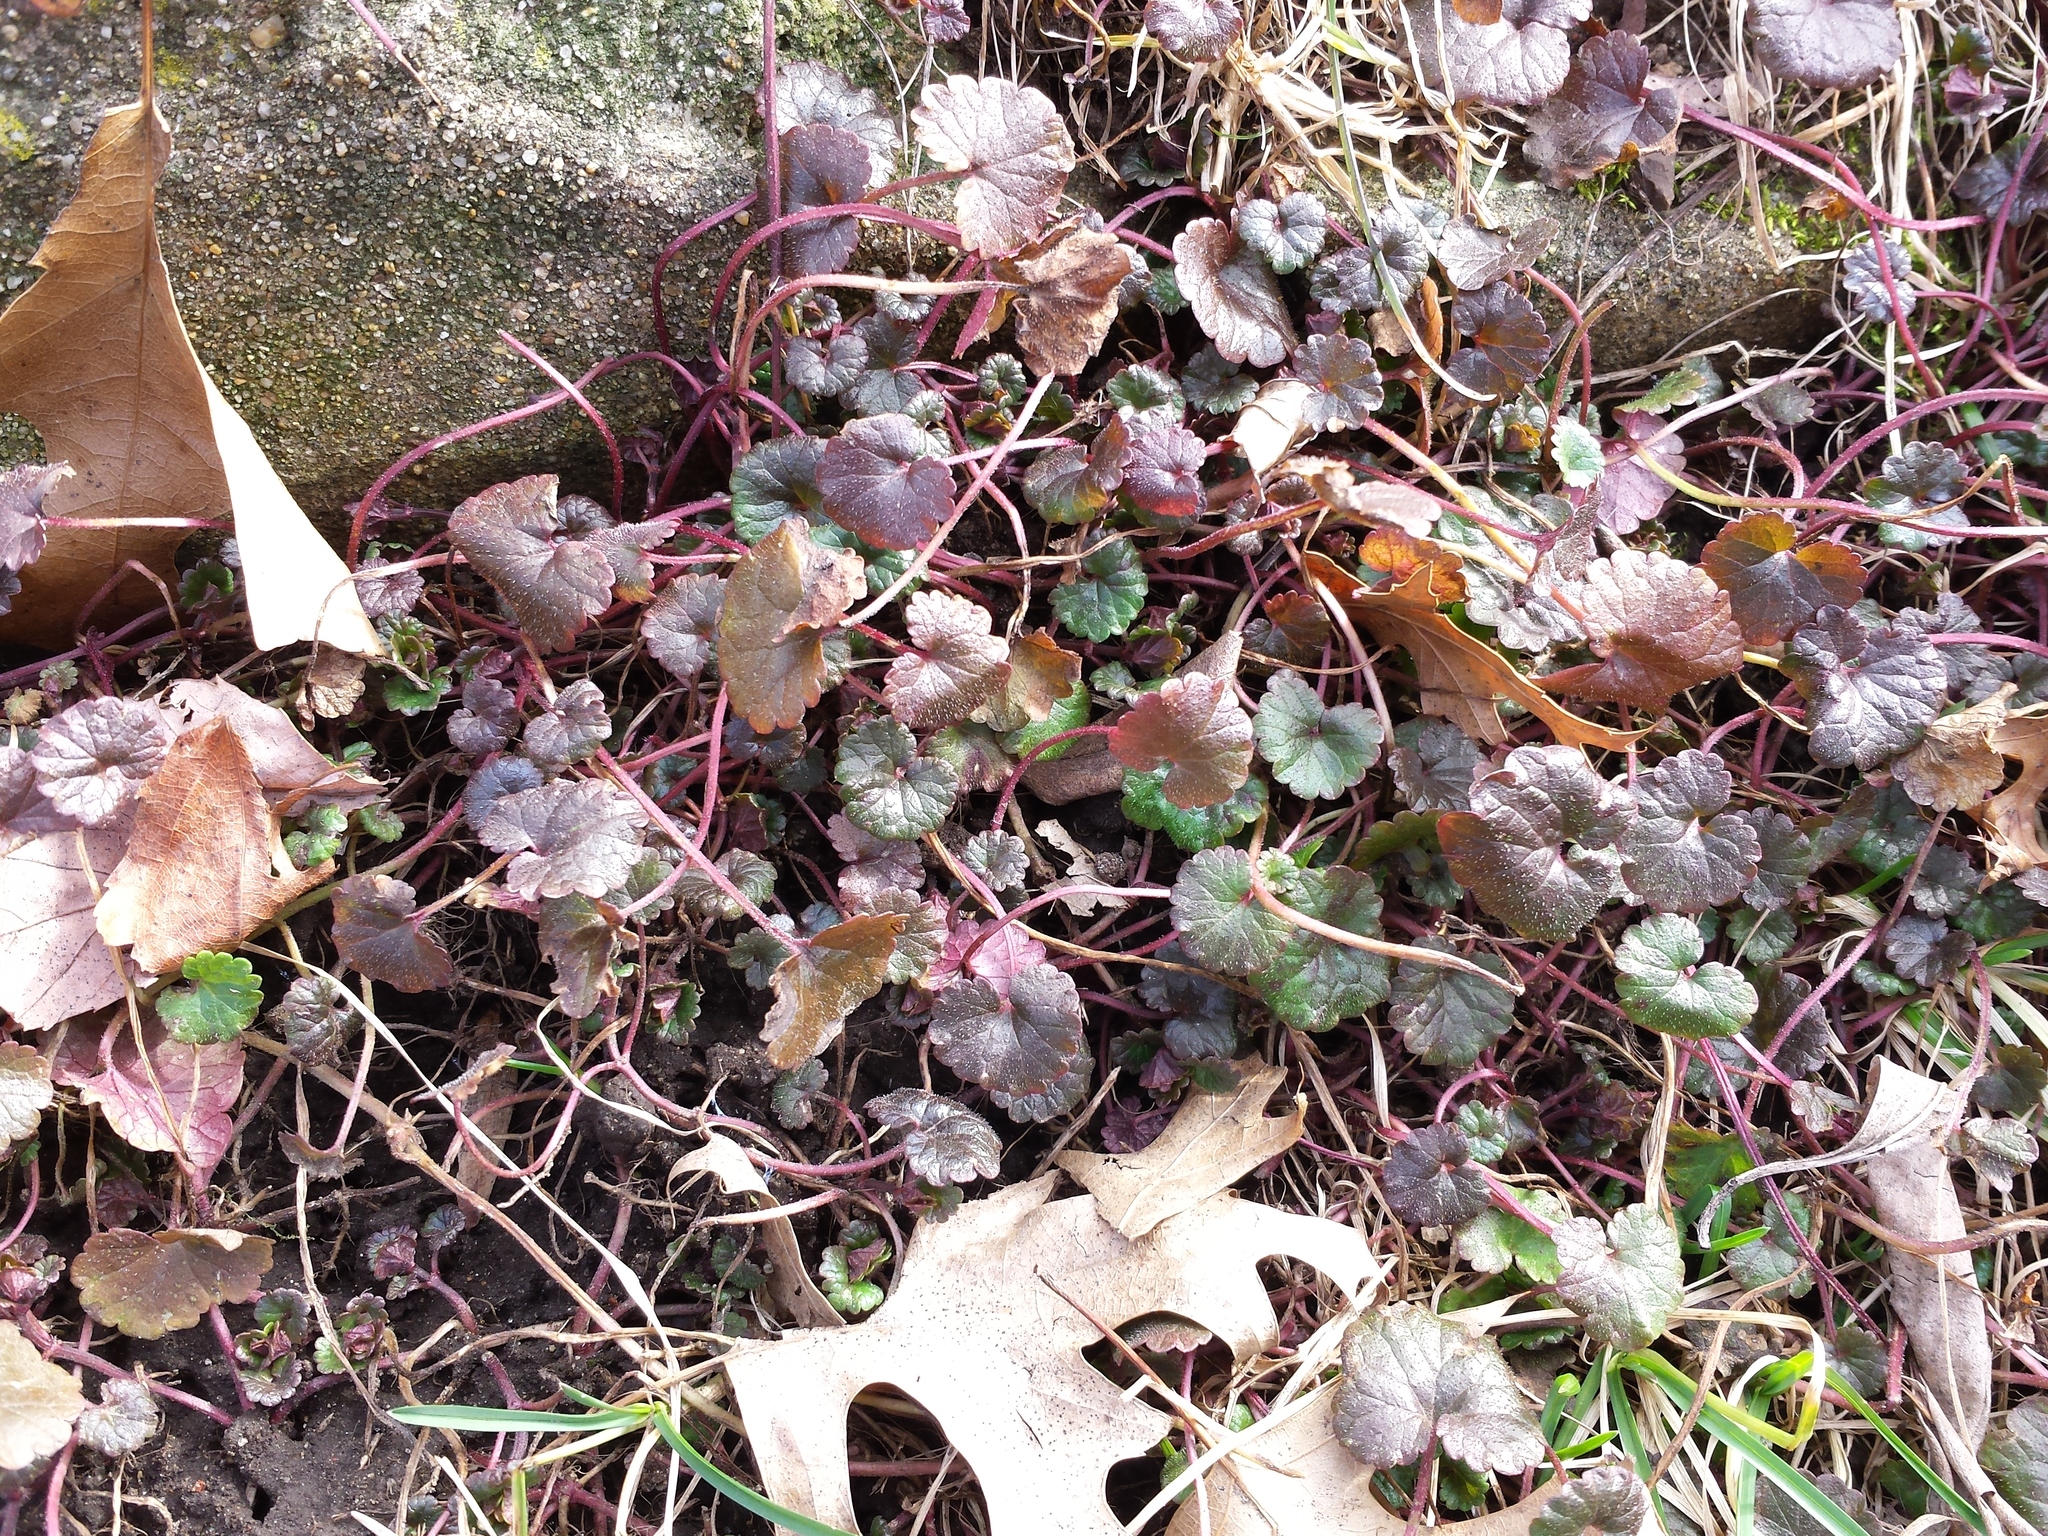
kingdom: Plantae
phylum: Tracheophyta
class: Magnoliopsida
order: Lamiales
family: Lamiaceae
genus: Glechoma
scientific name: Glechoma hederacea
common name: Ground ivy
